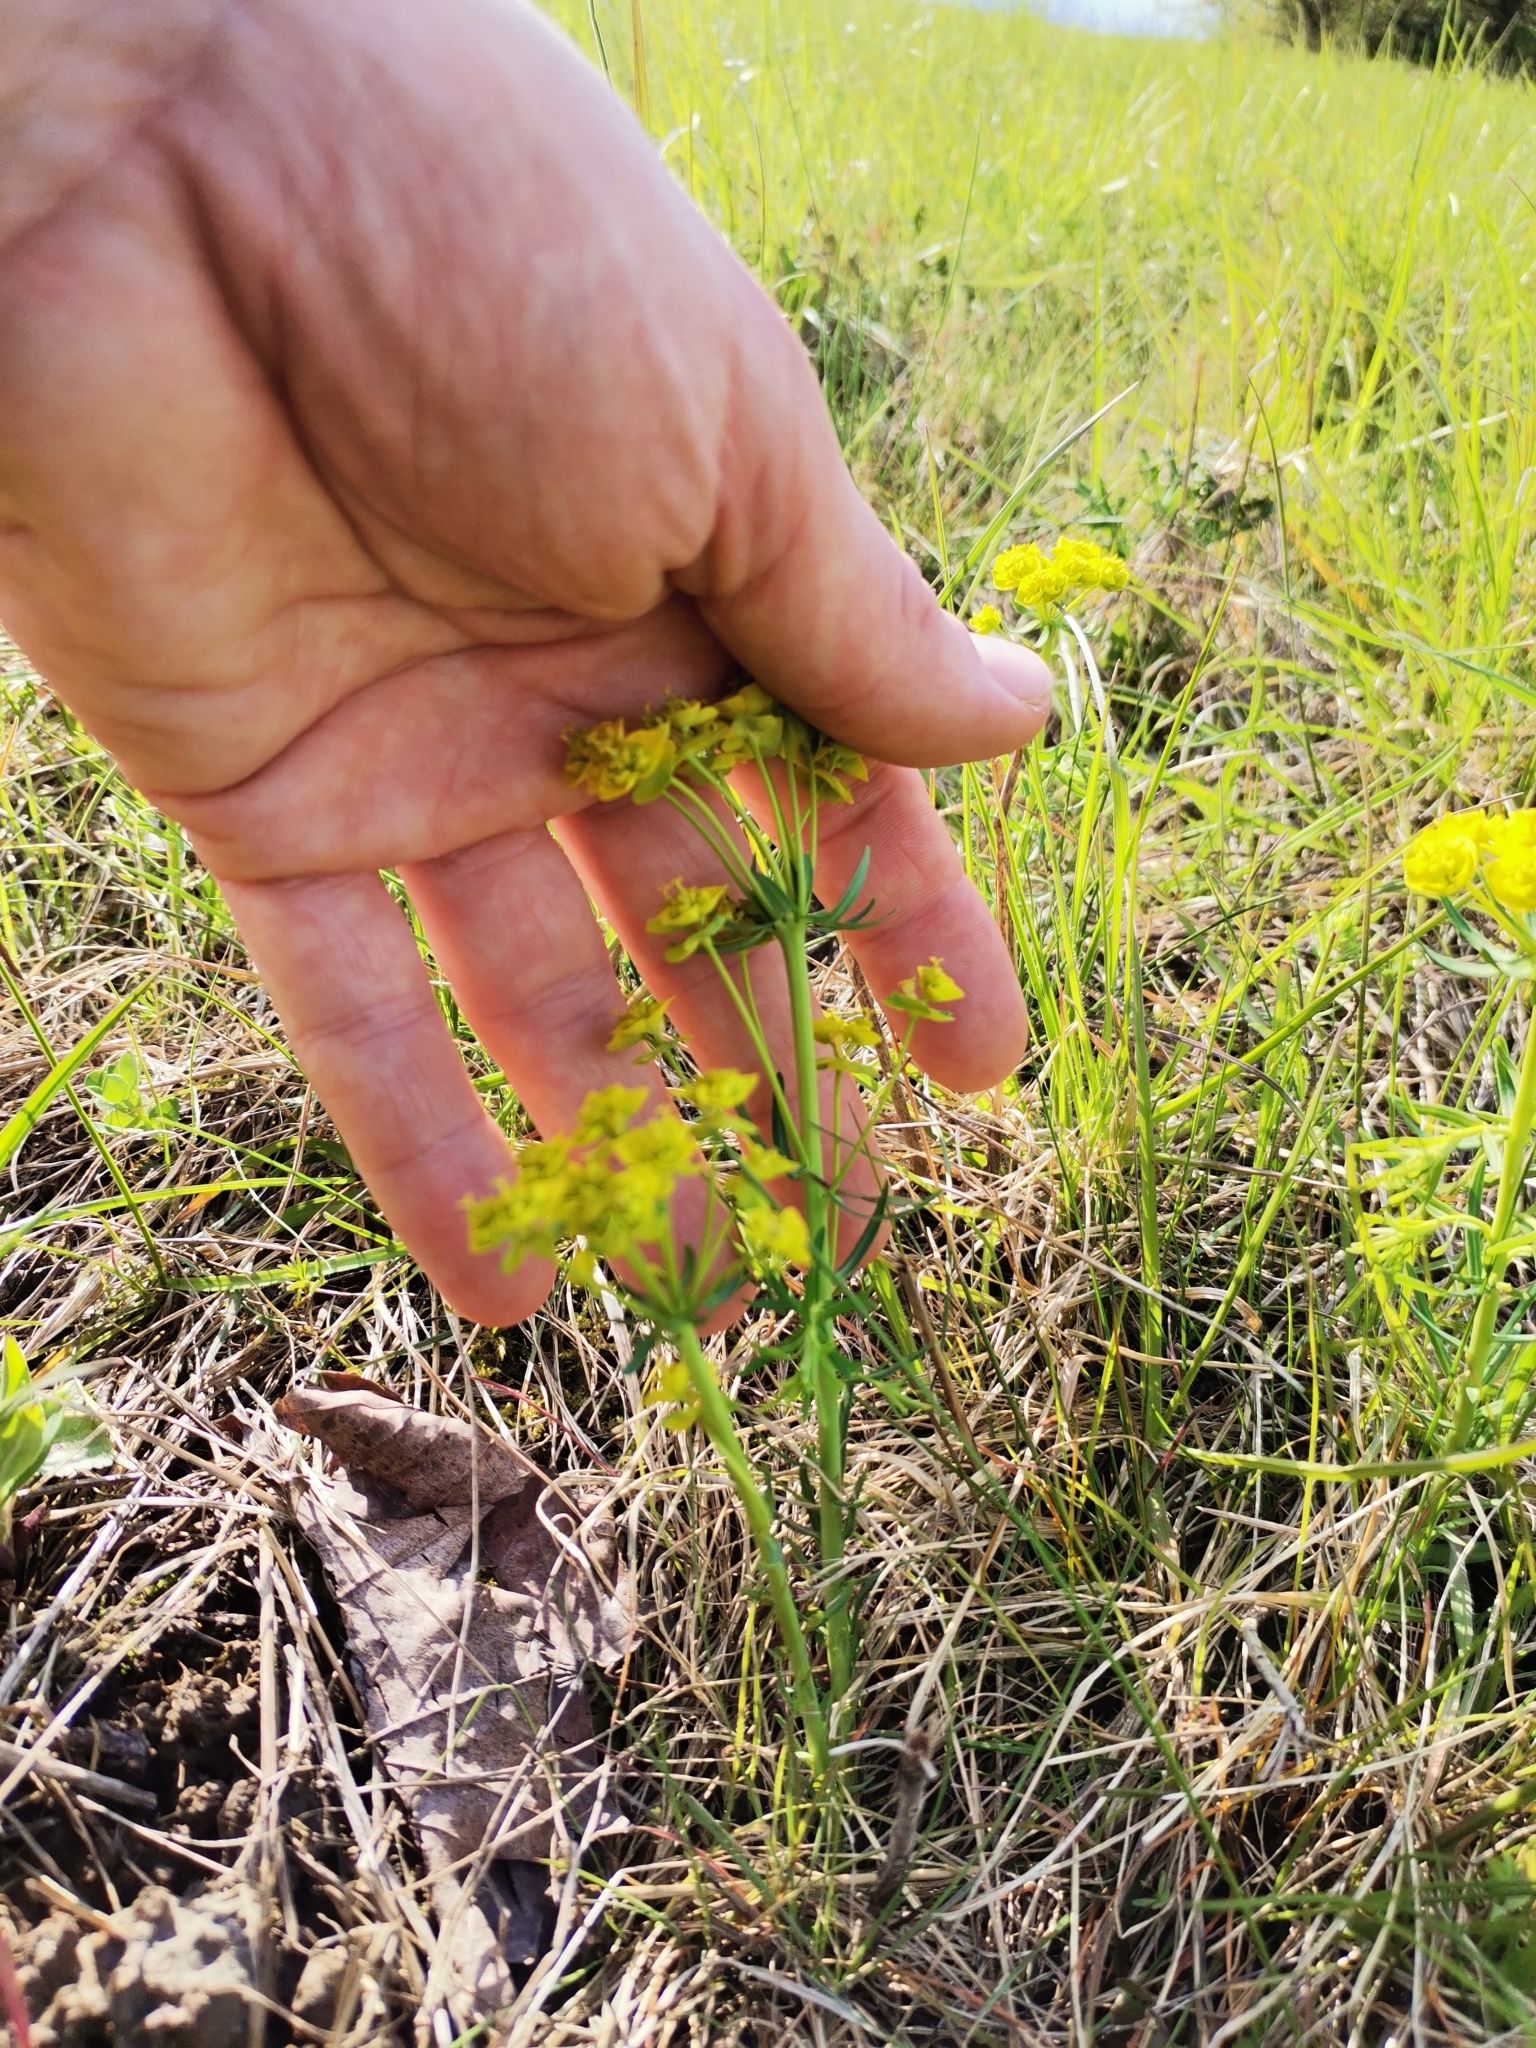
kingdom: Plantae
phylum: Tracheophyta
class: Magnoliopsida
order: Malpighiales
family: Euphorbiaceae
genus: Euphorbia
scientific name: Euphorbia cyparissias
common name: Cypress spurge
